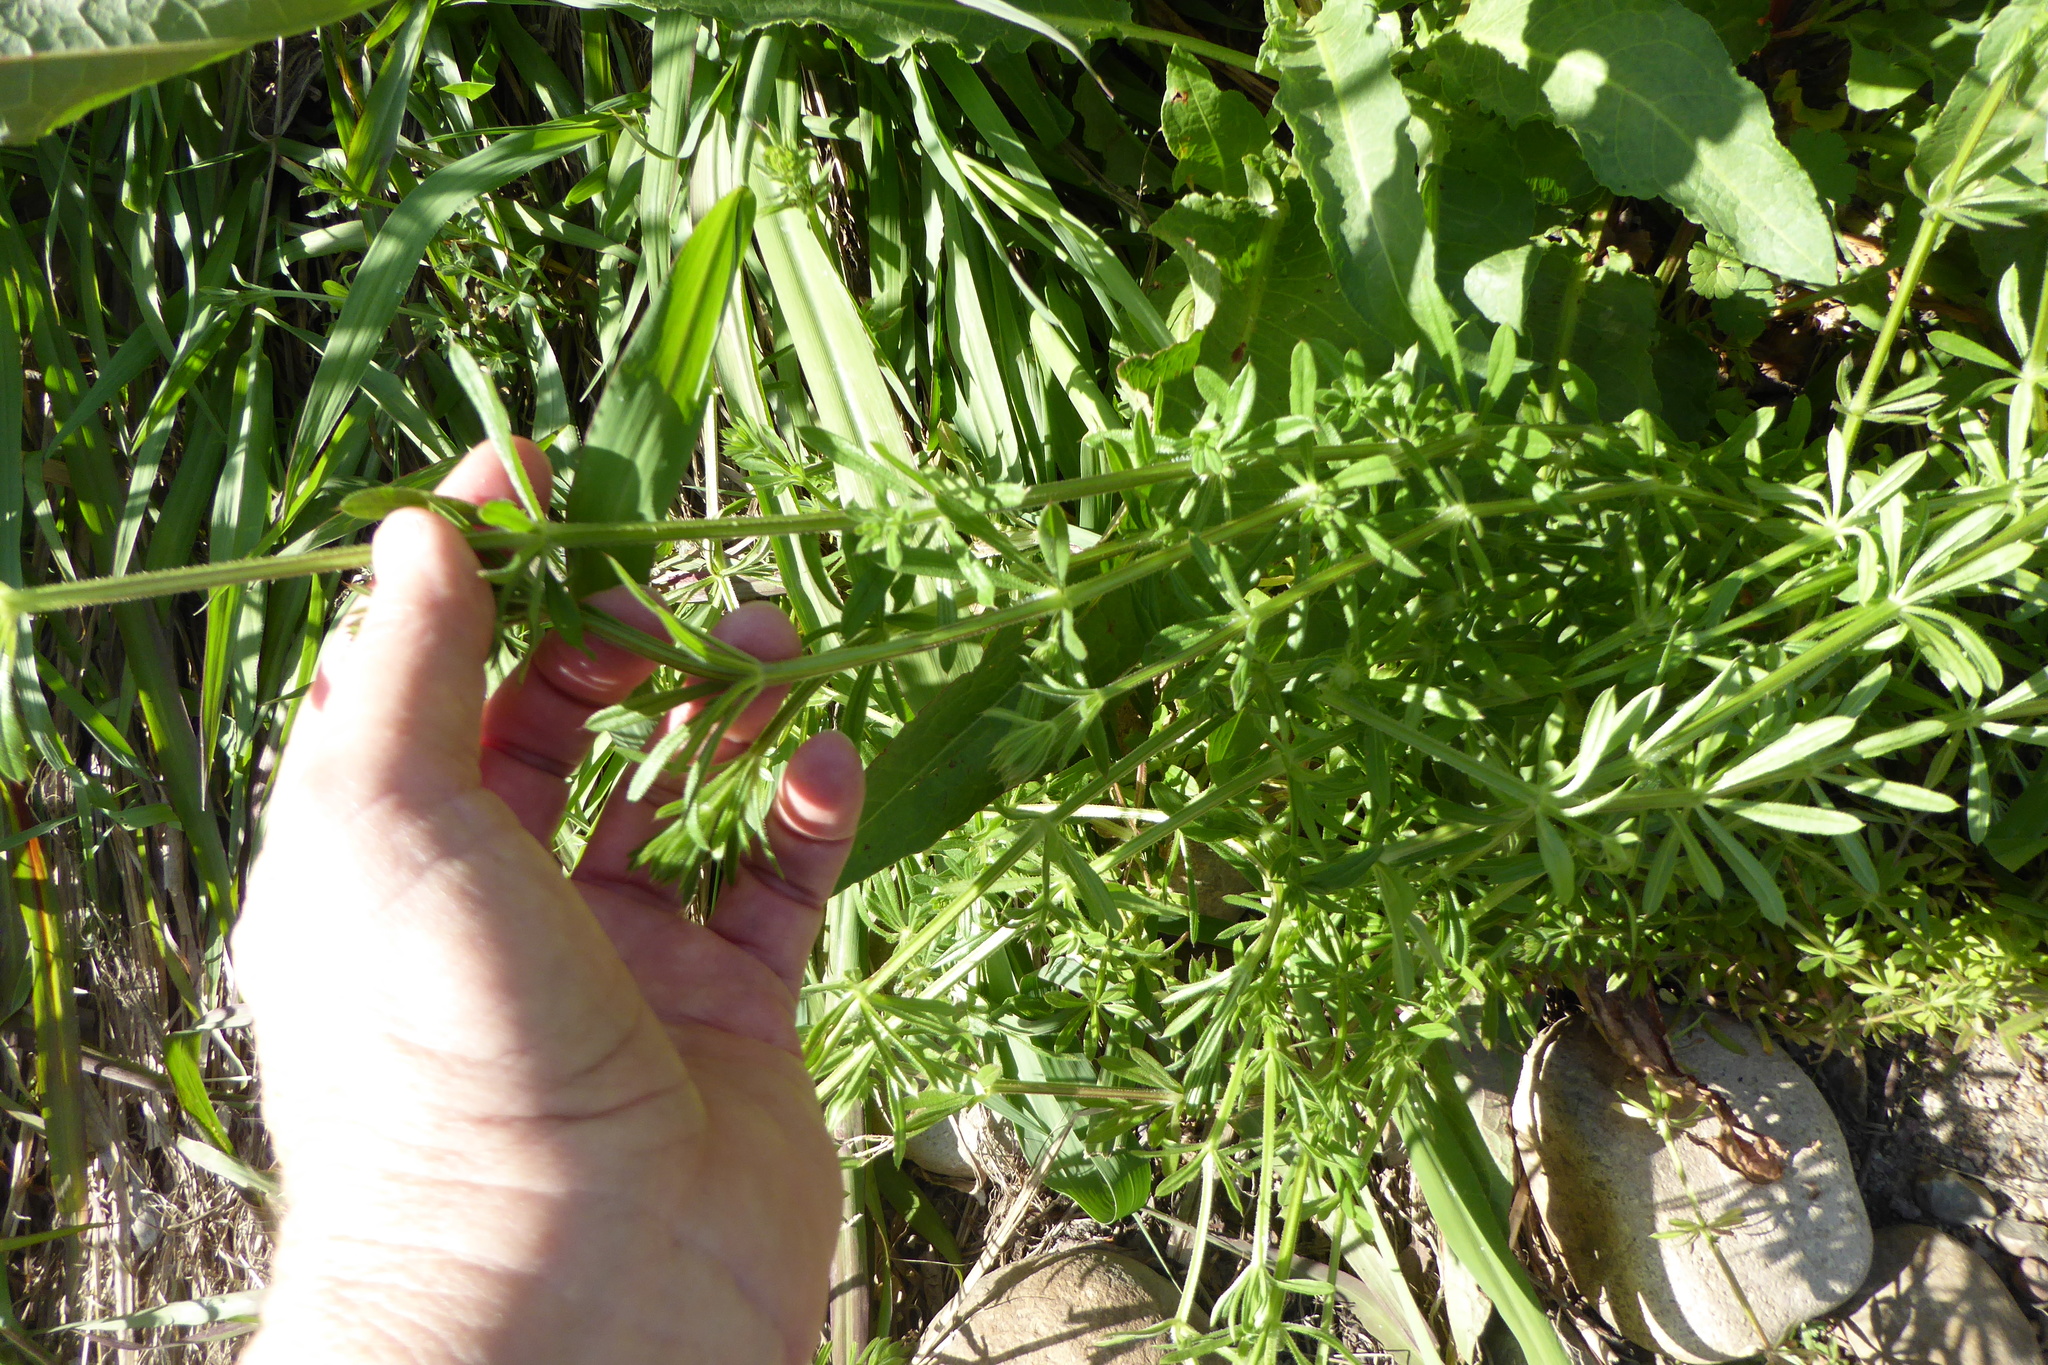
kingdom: Plantae
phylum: Tracheophyta
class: Magnoliopsida
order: Gentianales
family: Rubiaceae
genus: Galium
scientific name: Galium aparine
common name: Cleavers
